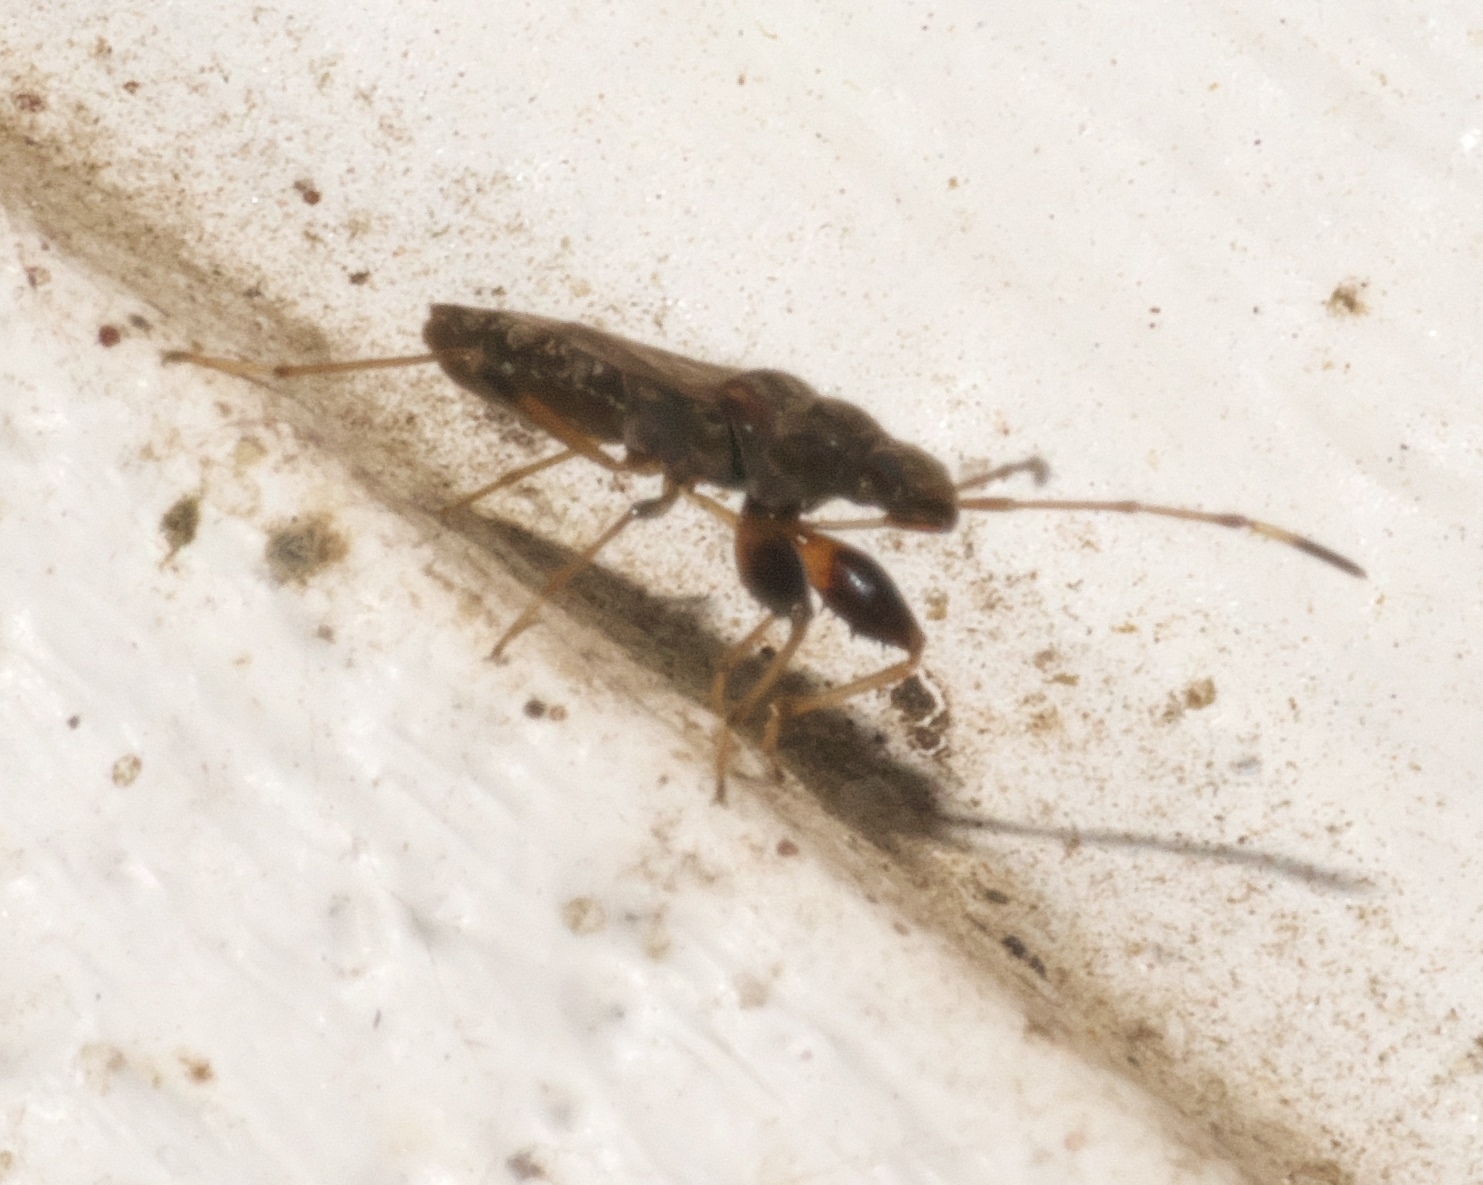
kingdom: Animalia
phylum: Arthropoda
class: Insecta
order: Hemiptera
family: Rhyparochromidae
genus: Neopamera
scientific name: Neopamera albocincta
